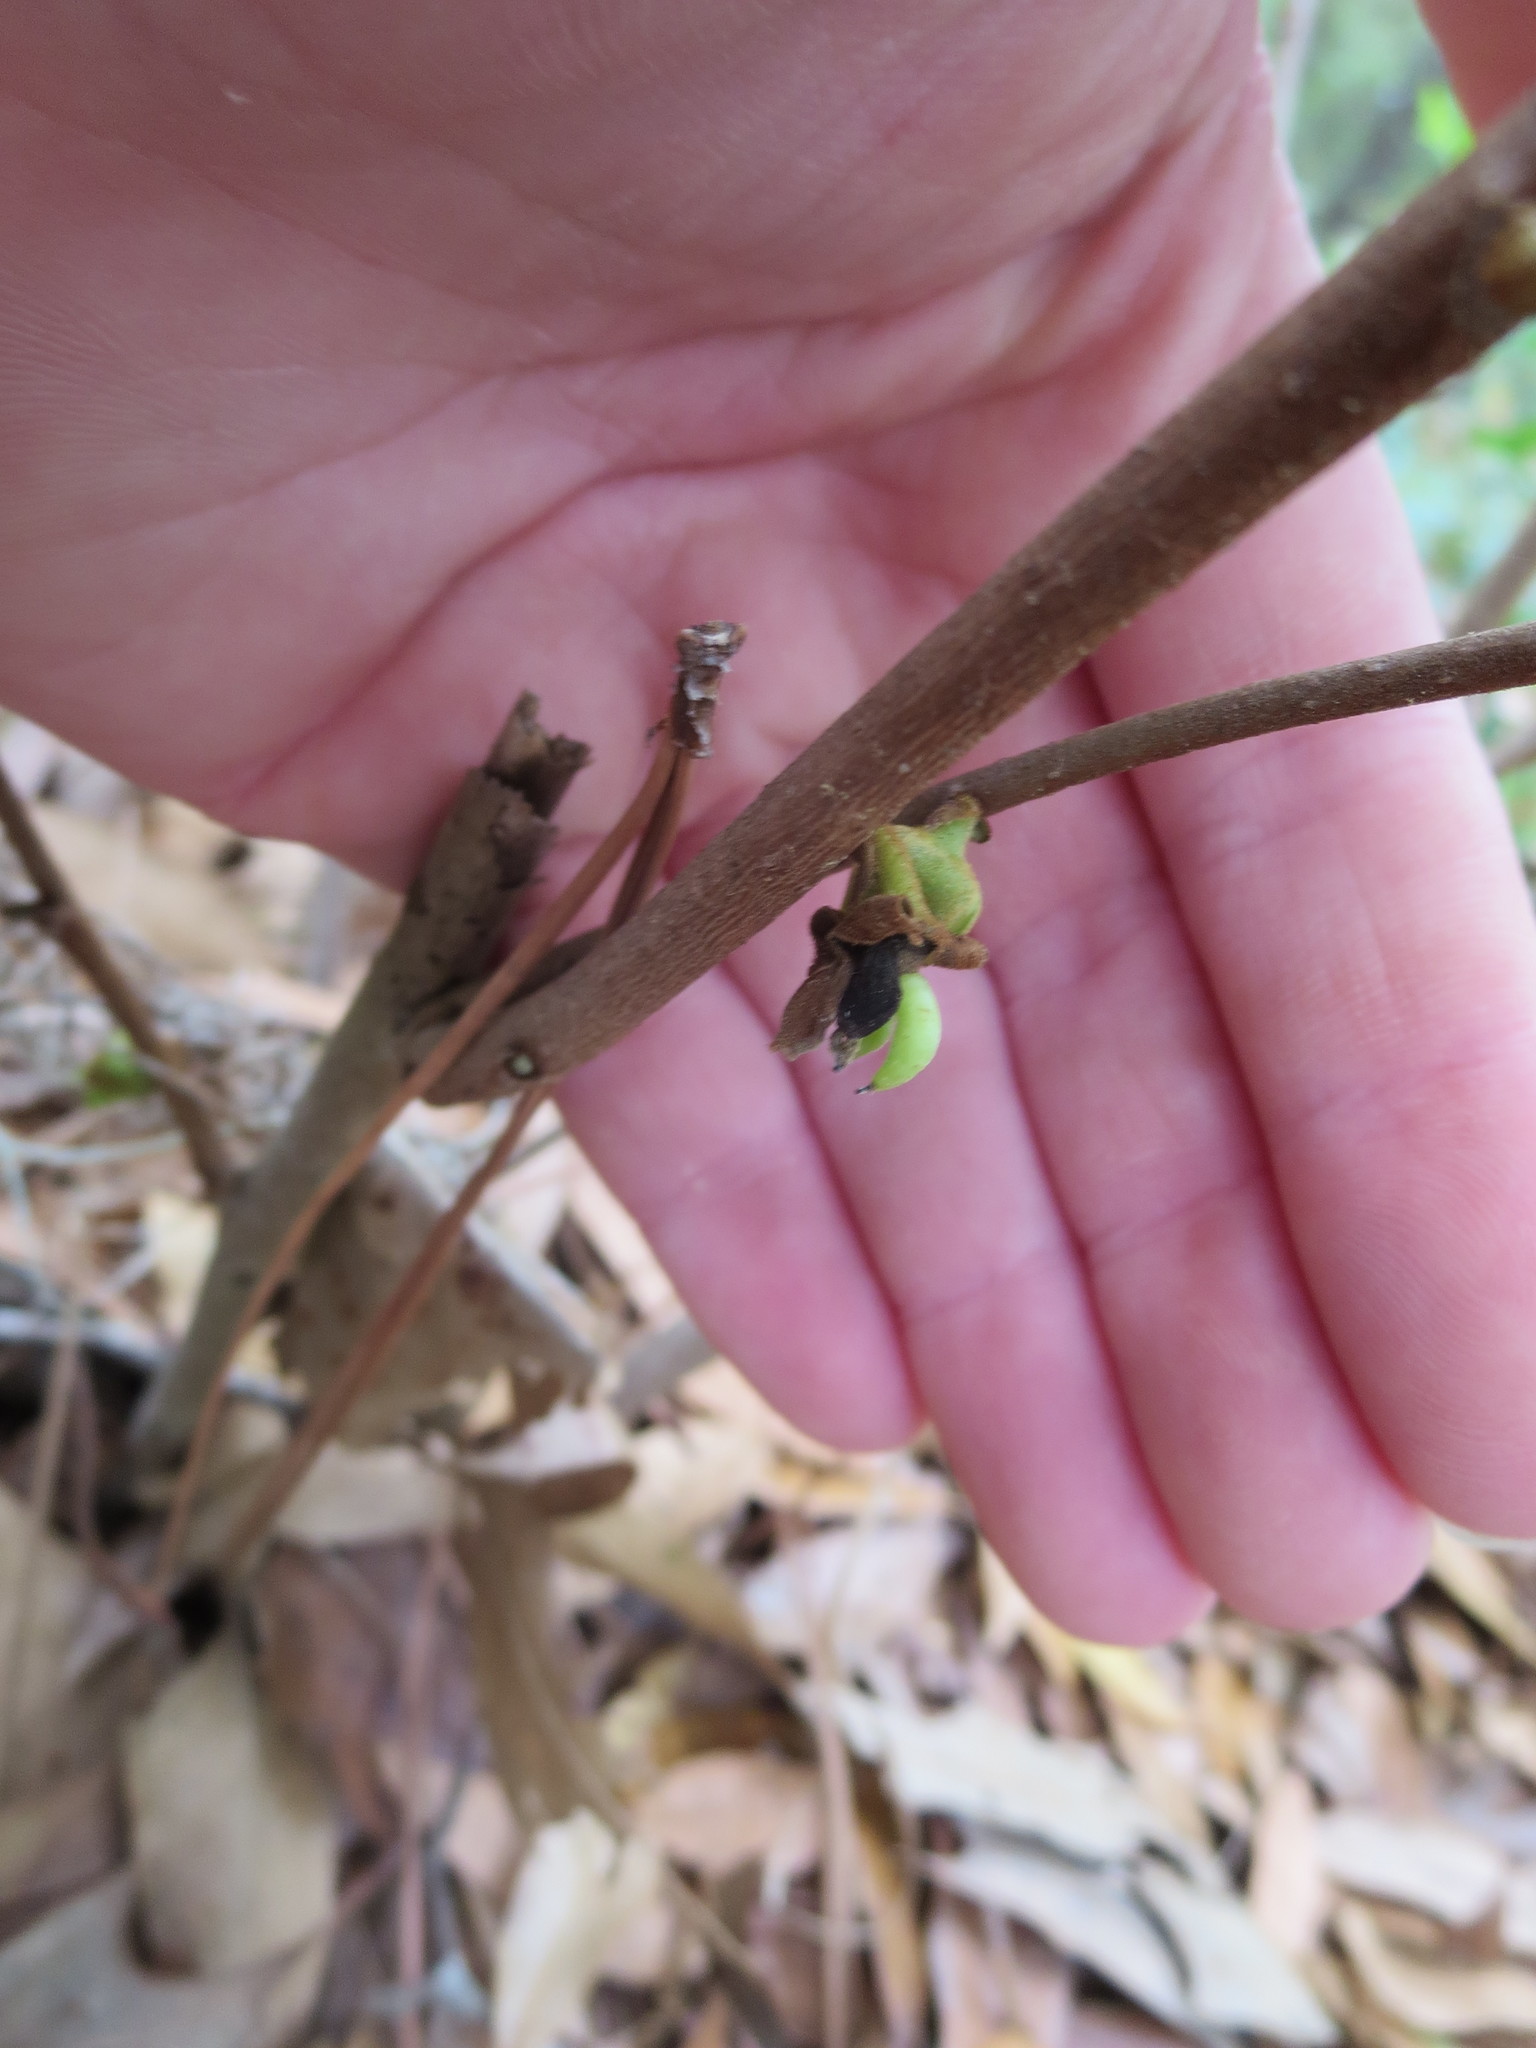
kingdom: Plantae
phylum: Tracheophyta
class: Magnoliopsida
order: Magnoliales
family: Annonaceae
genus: Asimina
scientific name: Asimina parviflora
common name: Dwarf pawpaw
